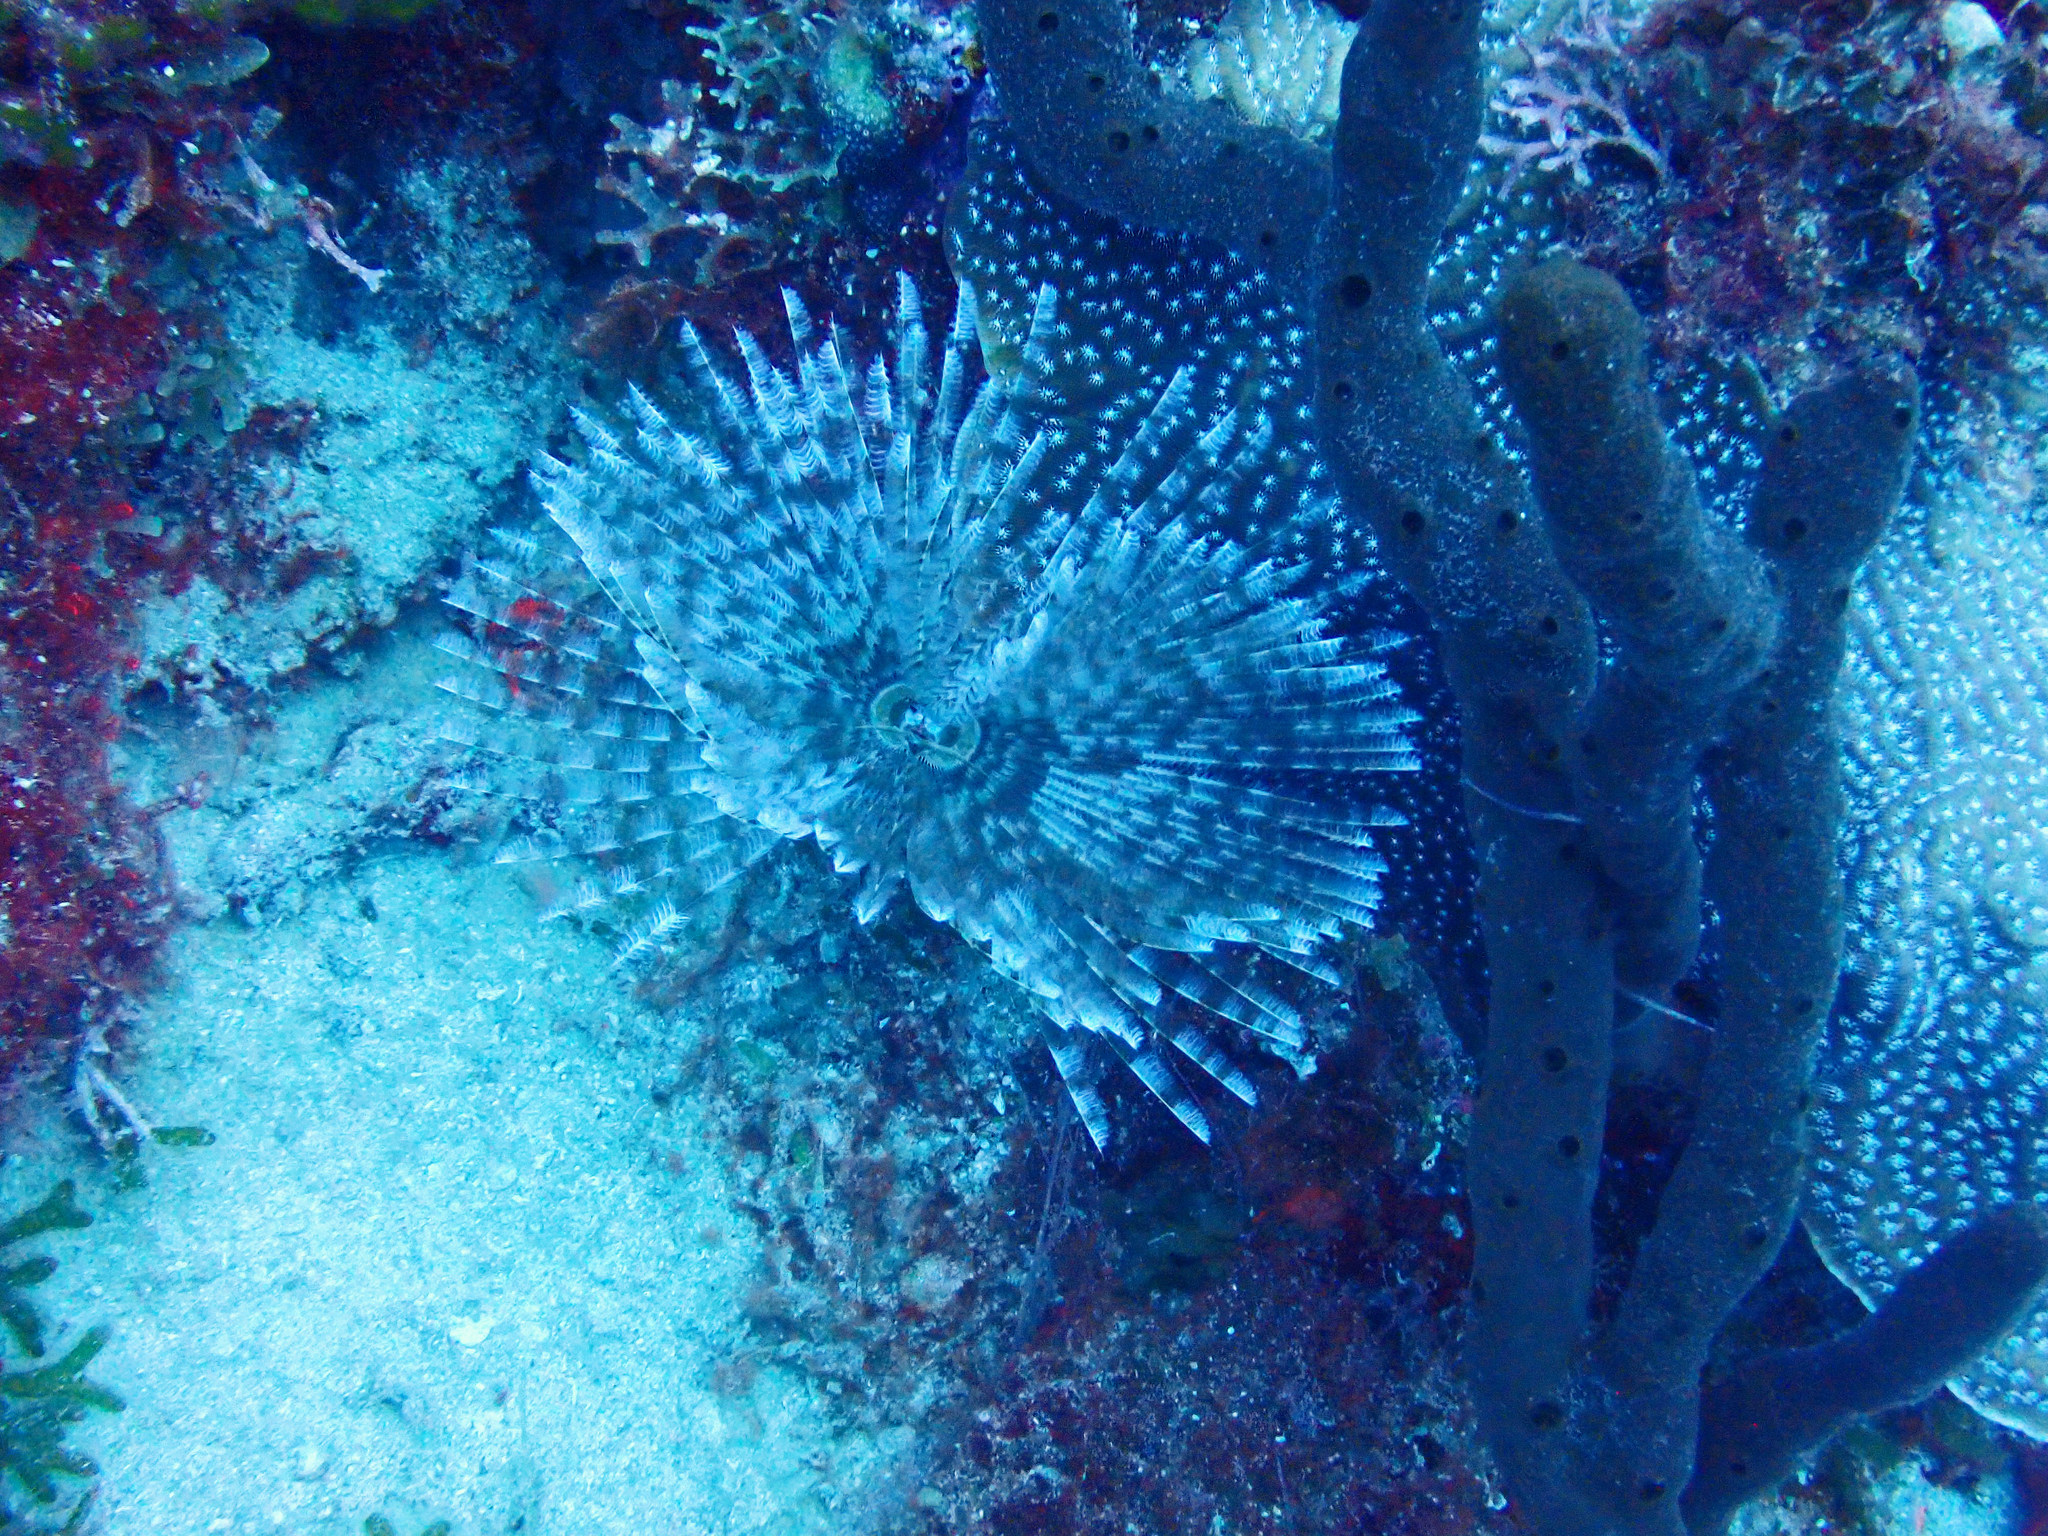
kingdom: Animalia
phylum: Annelida
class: Polychaeta
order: Sabellida
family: Sabellidae
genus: Sabellastarte
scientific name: Sabellastarte magnifica
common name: Giant feather-duster worm
